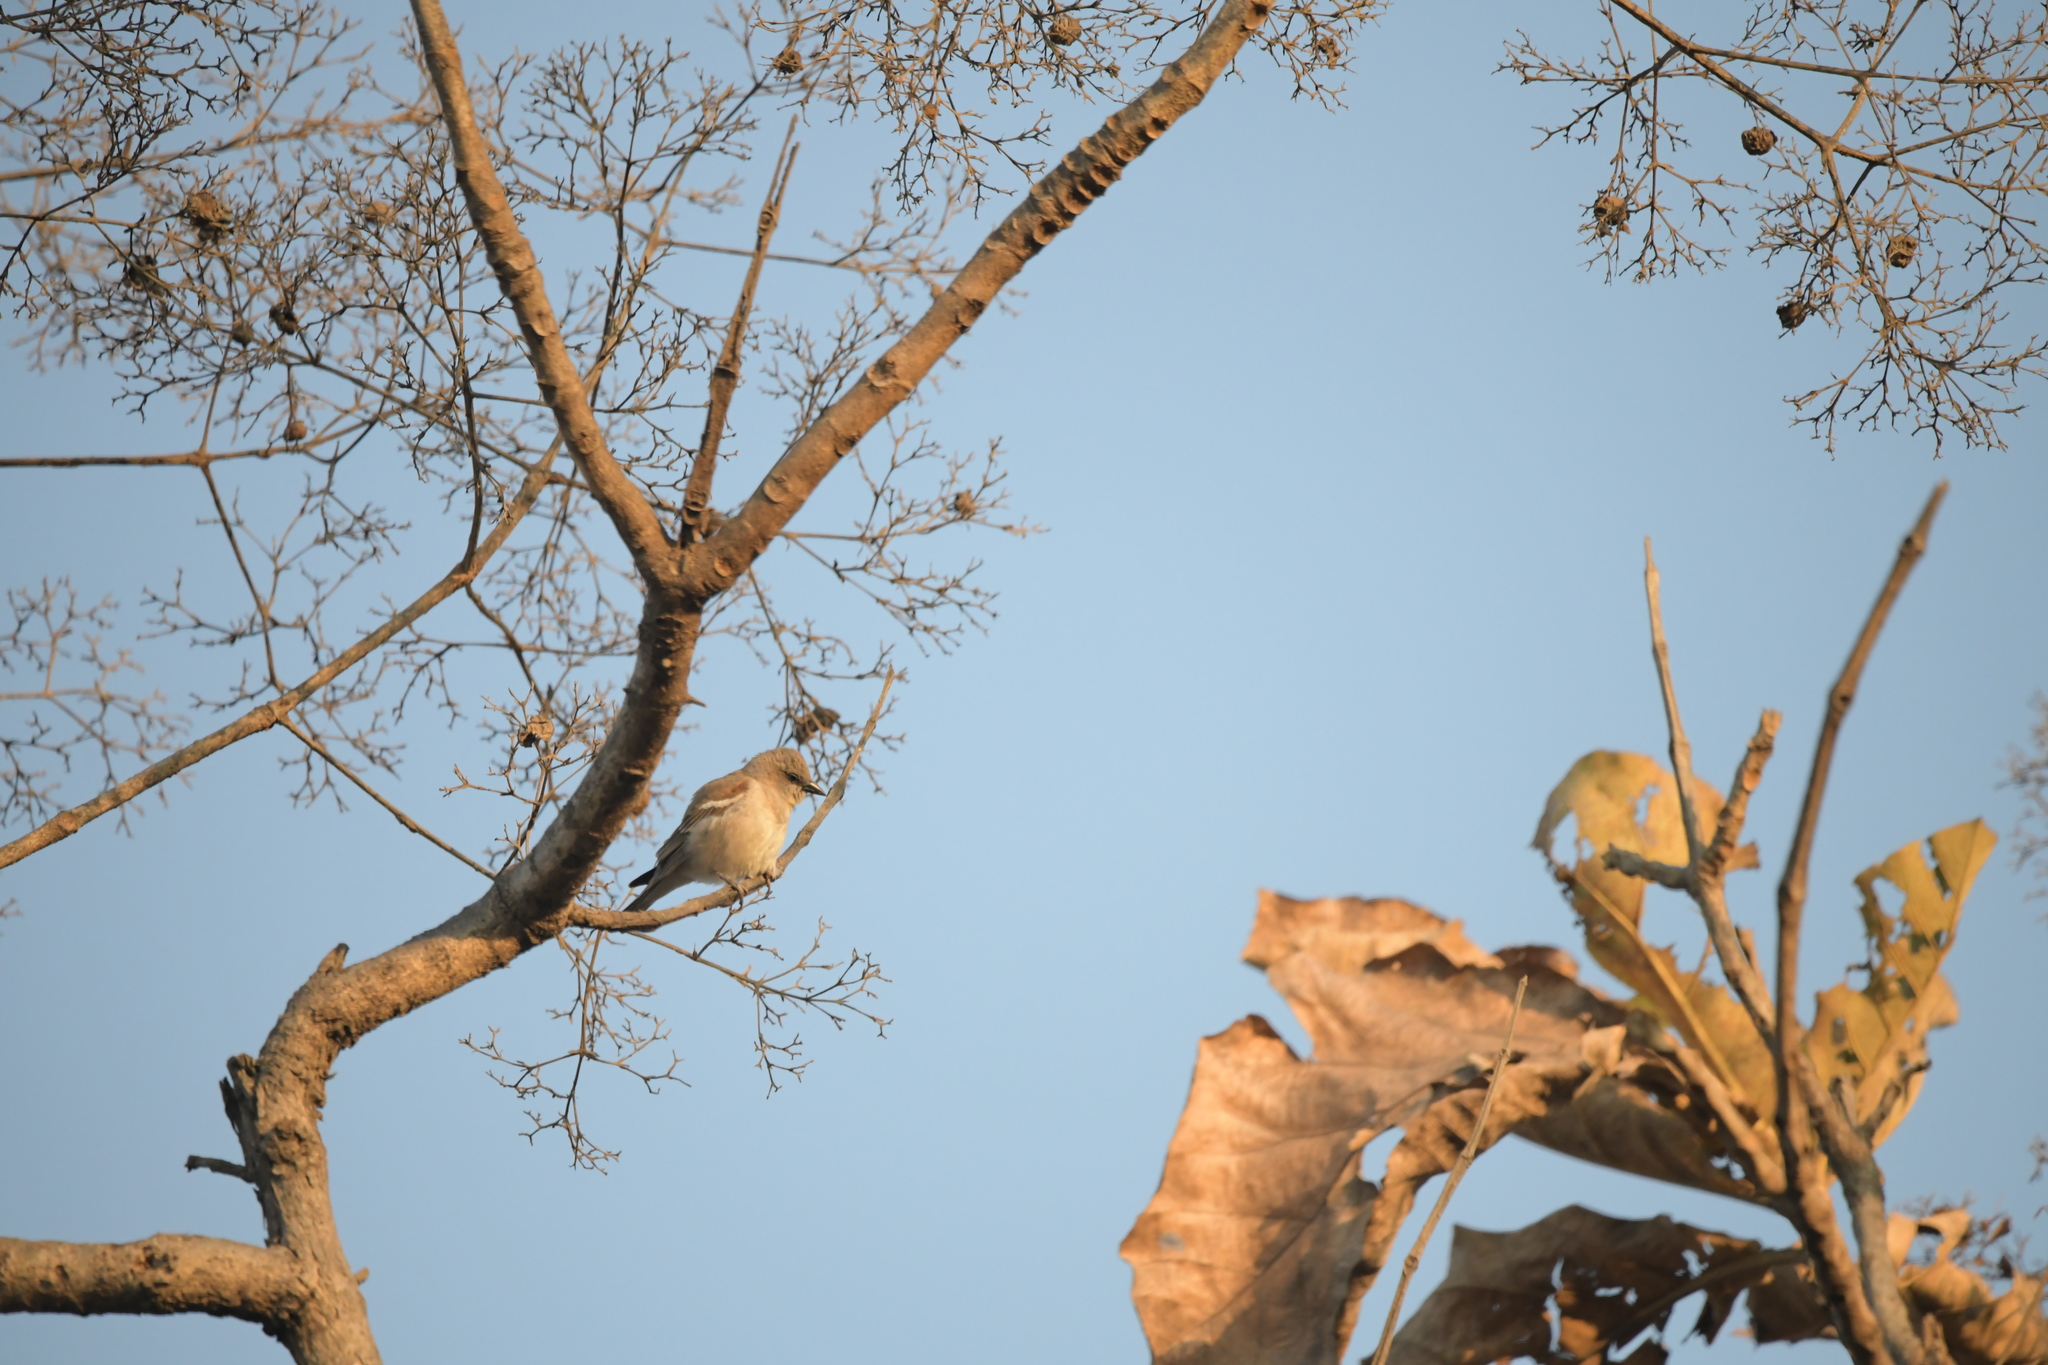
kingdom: Animalia
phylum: Chordata
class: Aves
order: Passeriformes
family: Passeridae
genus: Gymnoris
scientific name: Gymnoris xanthocollis
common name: Yellow-throated sparrow
